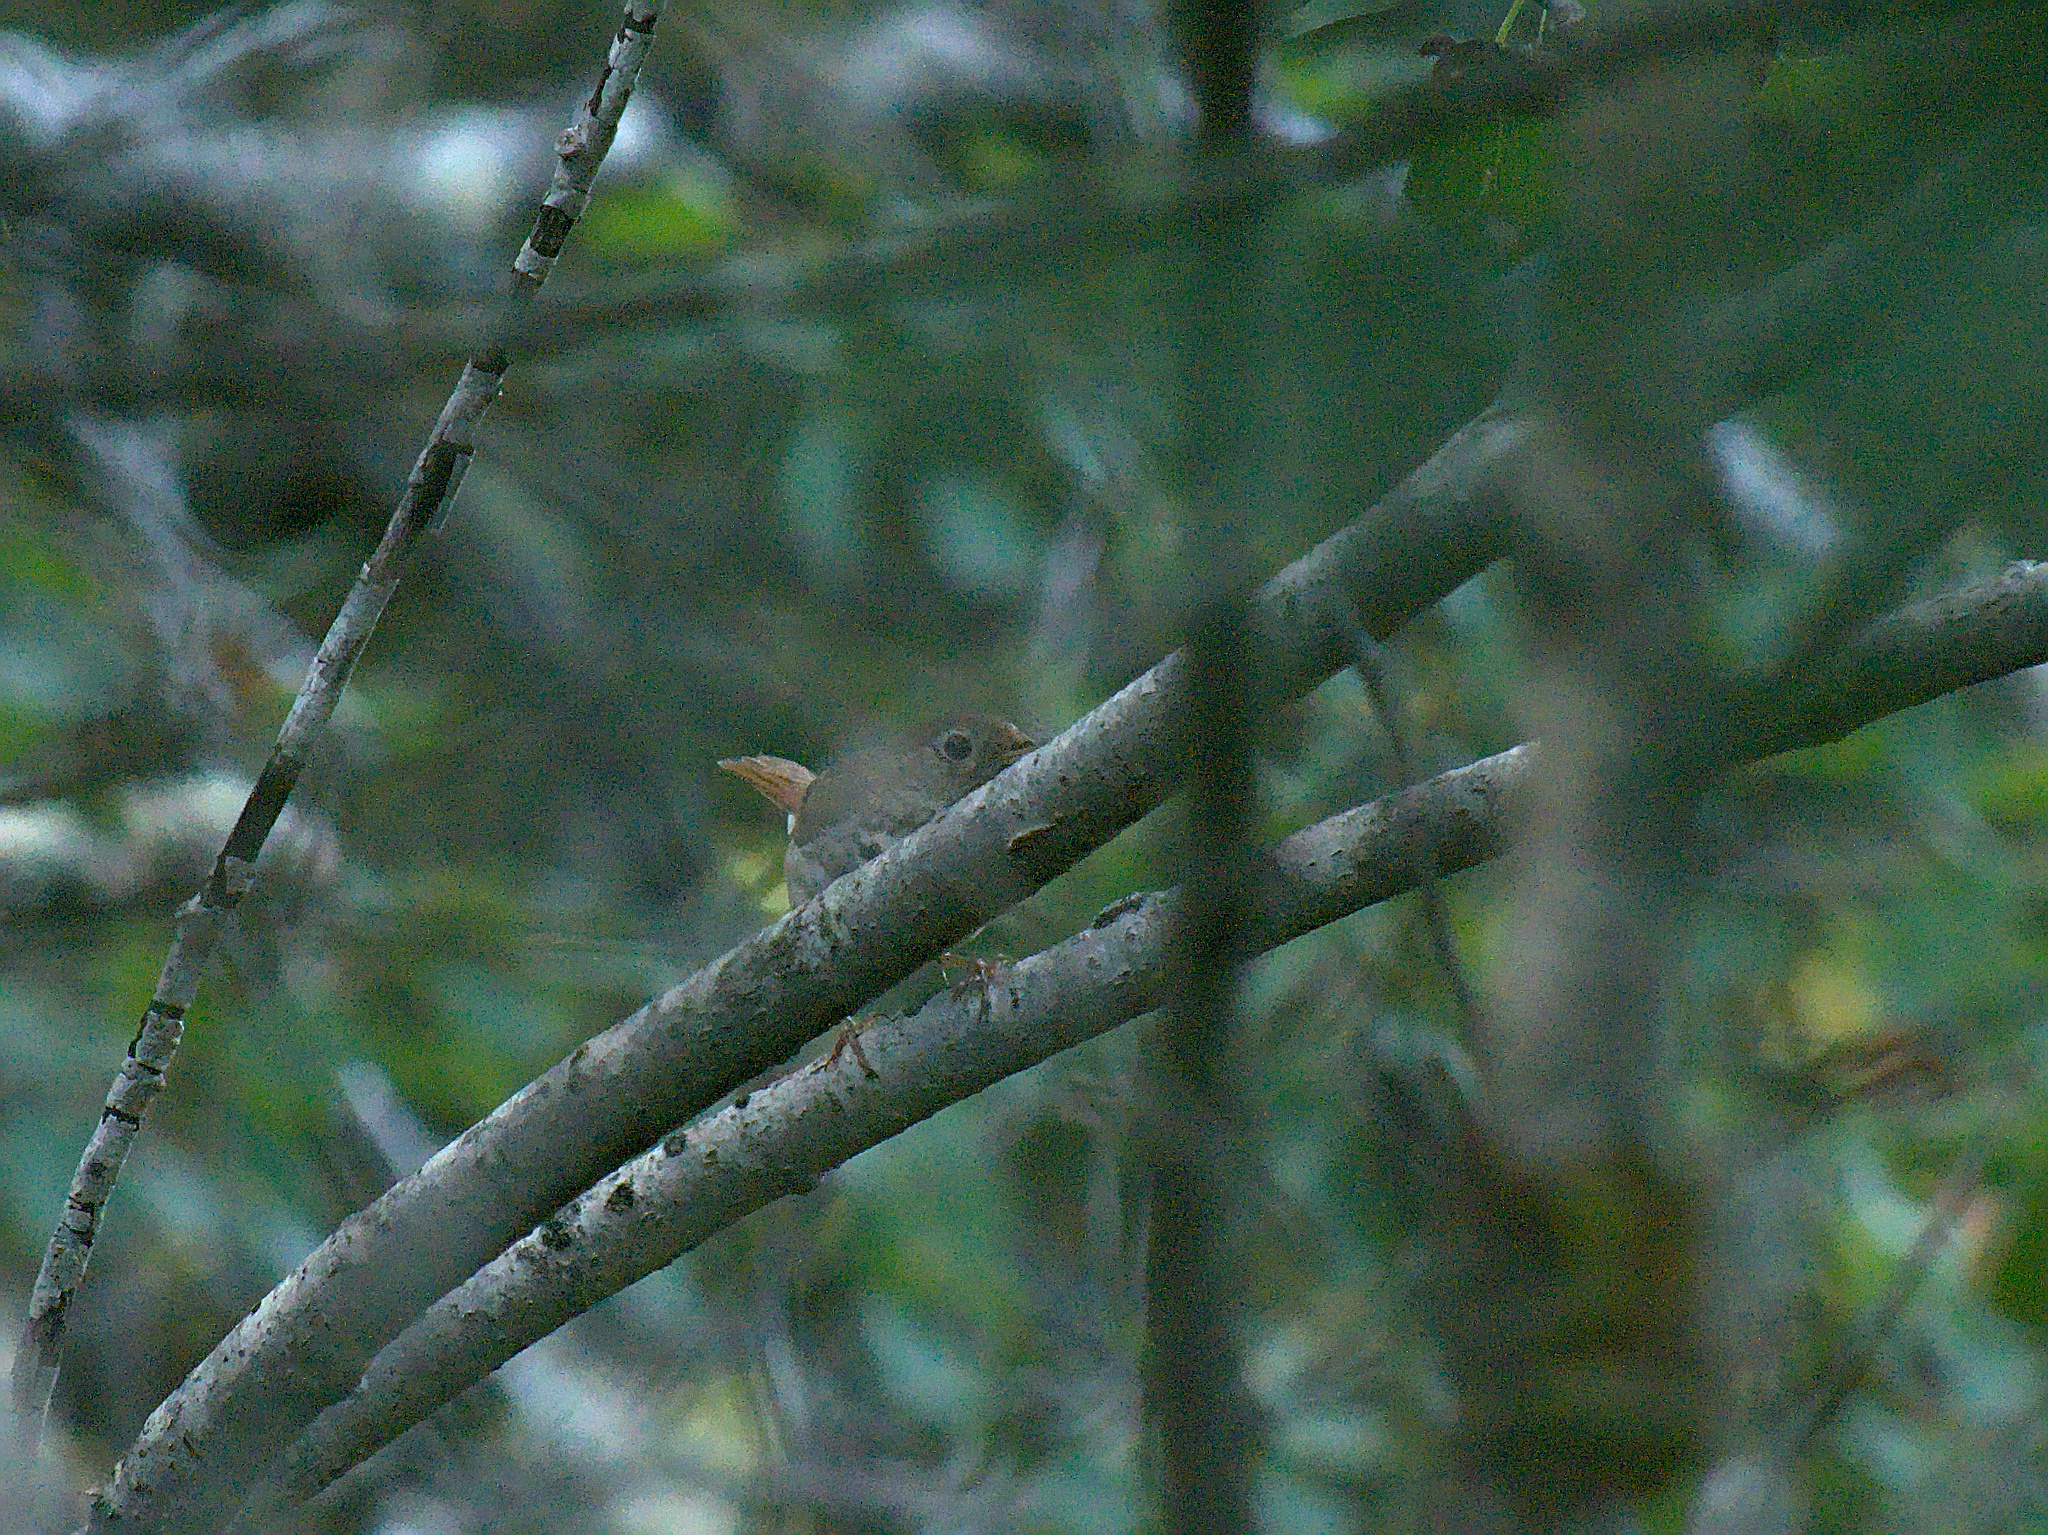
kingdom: Animalia
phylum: Chordata
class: Aves
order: Passeriformes
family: Turdidae
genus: Catharus
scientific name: Catharus guttatus
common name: Hermit thrush
